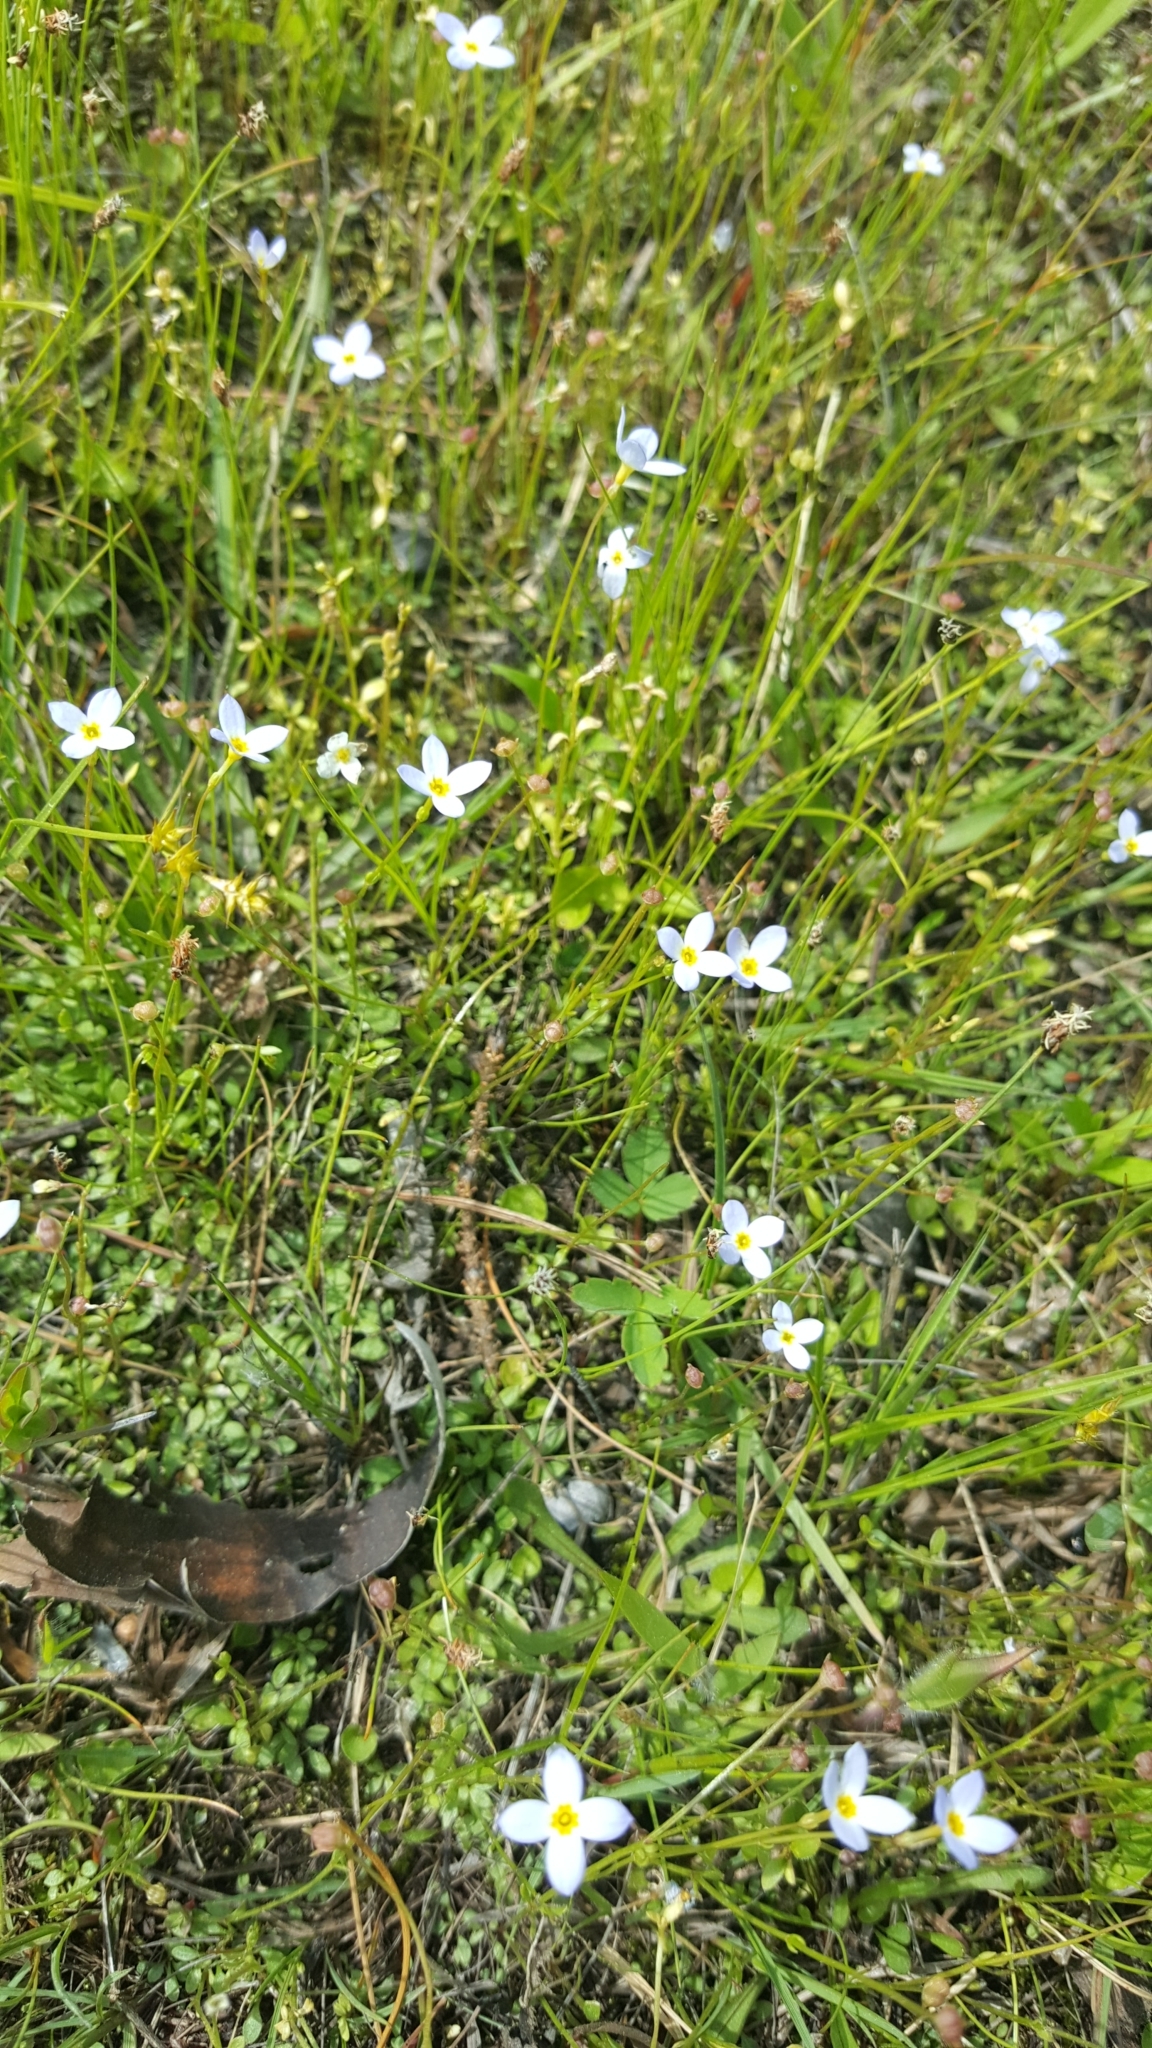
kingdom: Plantae
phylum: Tracheophyta
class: Magnoliopsida
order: Gentianales
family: Rubiaceae
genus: Houstonia
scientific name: Houstonia caerulea
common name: Bluets
